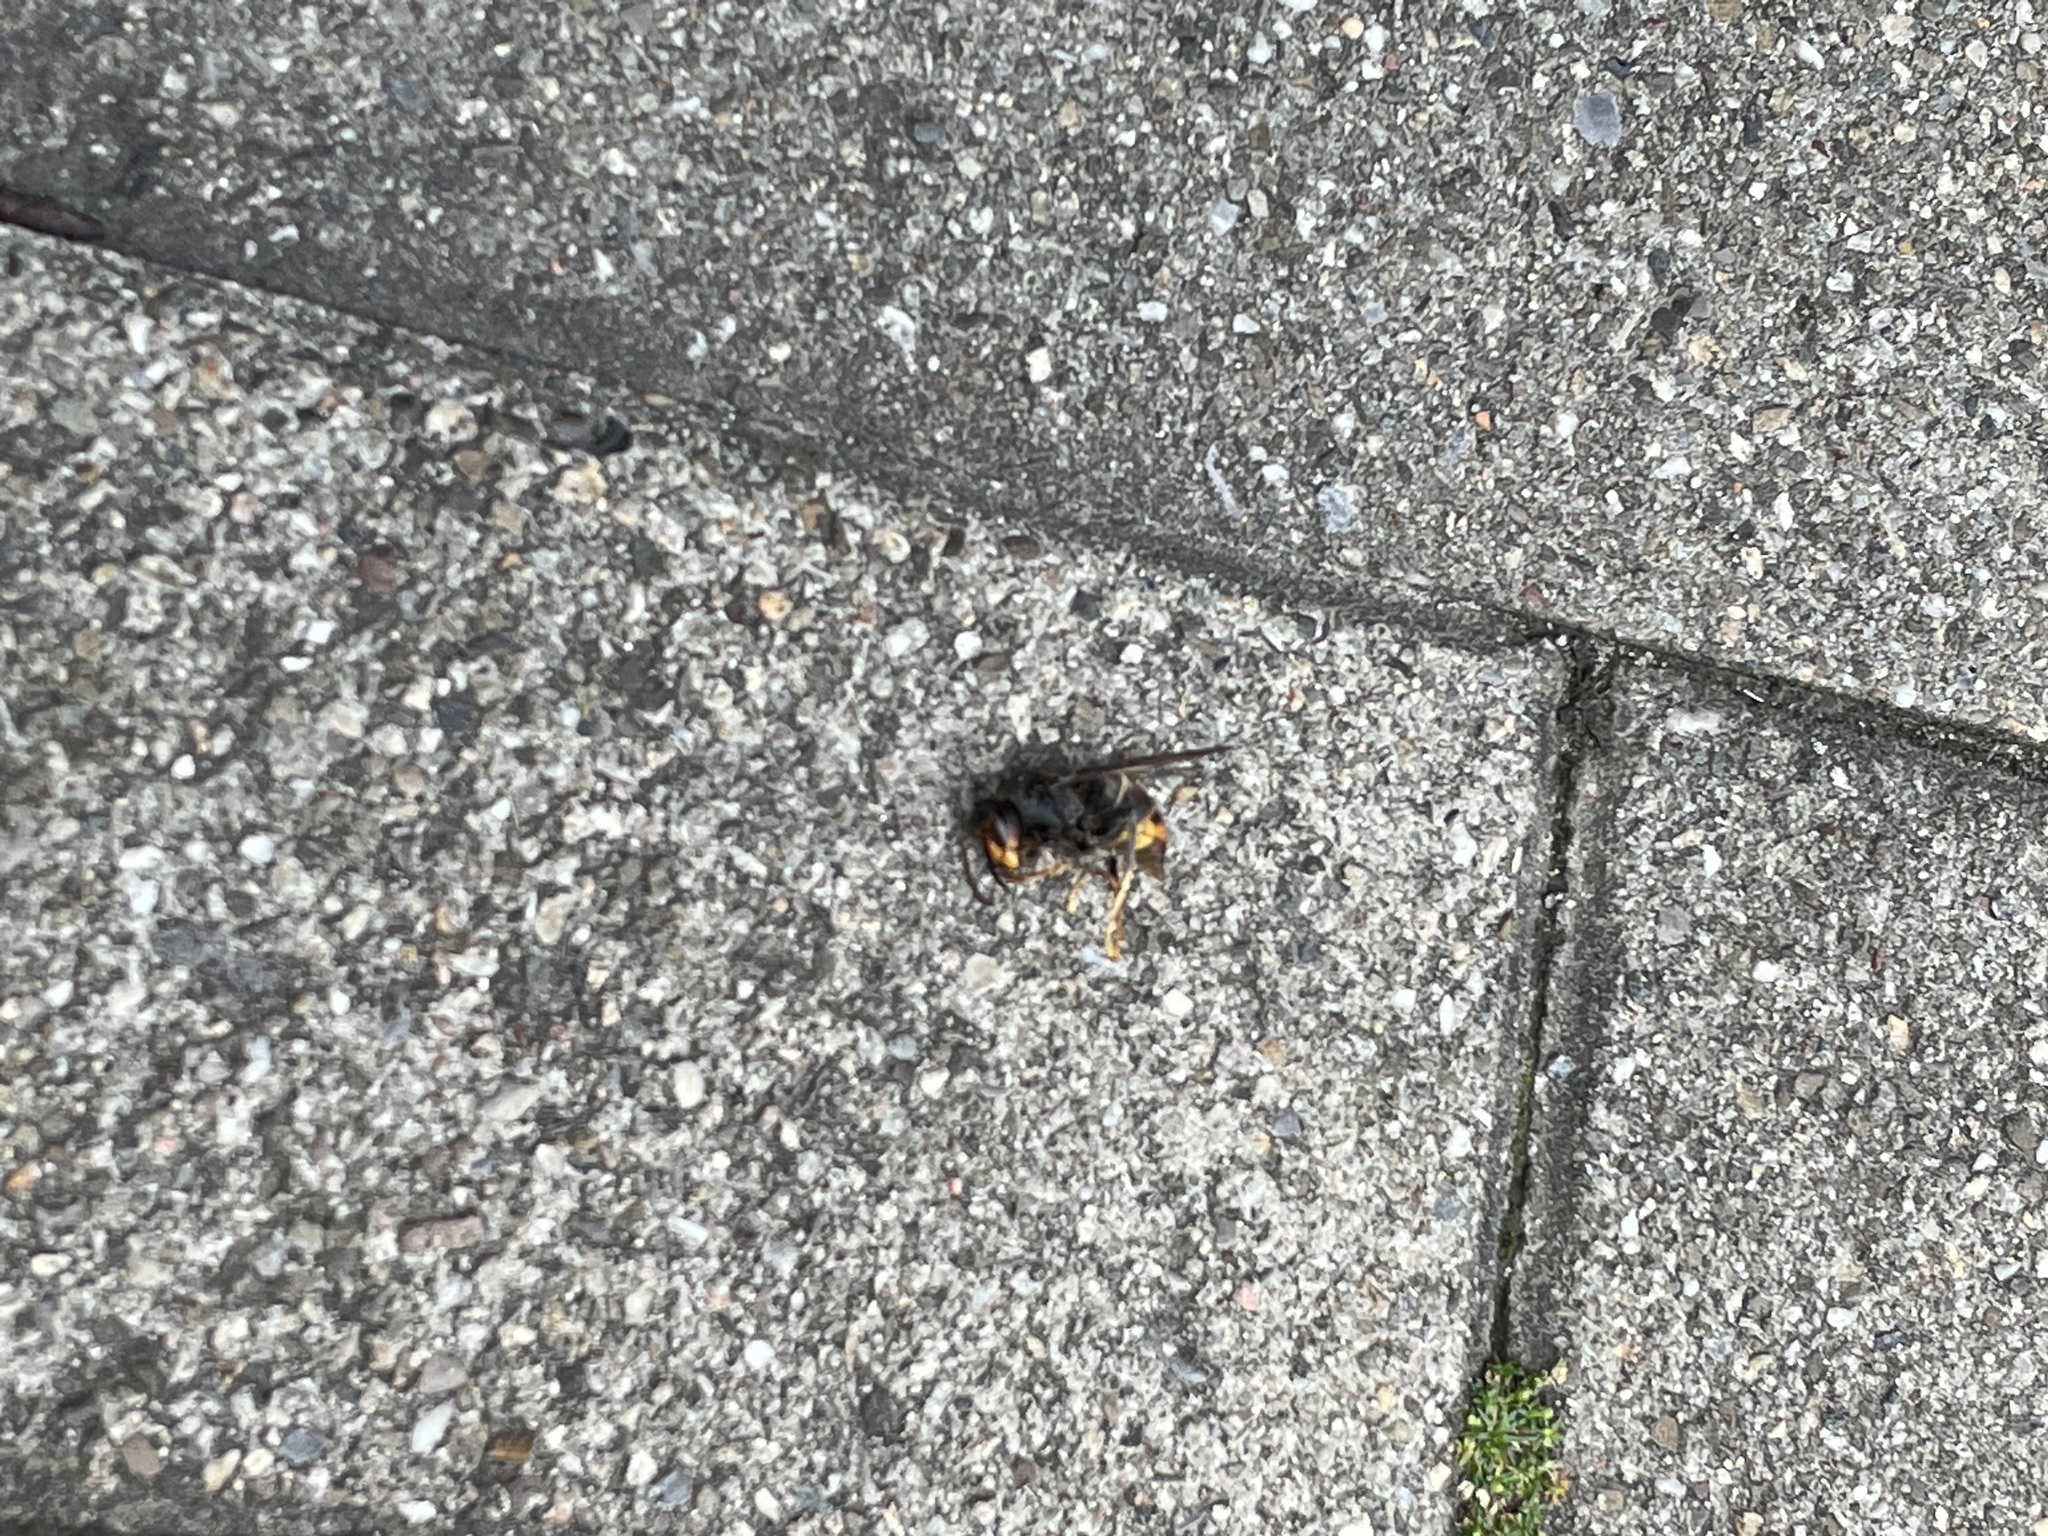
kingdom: Animalia
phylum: Arthropoda
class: Insecta
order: Hymenoptera
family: Vespidae
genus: Vespa
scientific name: Vespa velutina
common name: Asian hornet
